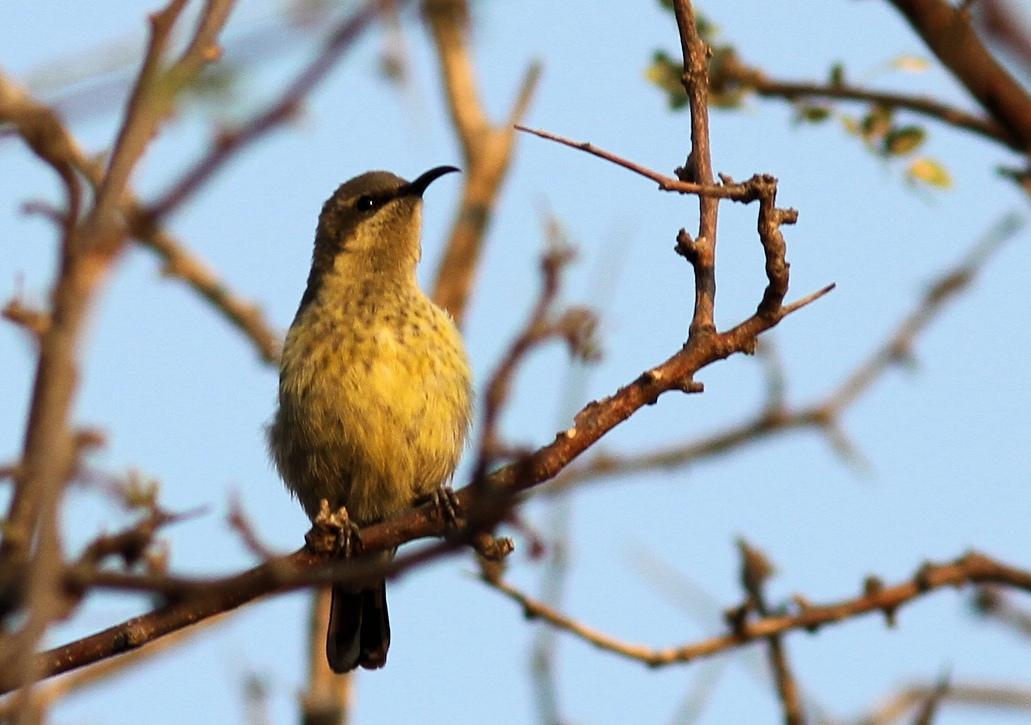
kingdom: Animalia
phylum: Chordata
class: Aves
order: Passeriformes
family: Nectariniidae
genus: Cinnyris
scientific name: Cinnyris mariquensis
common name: Marico sunbird
